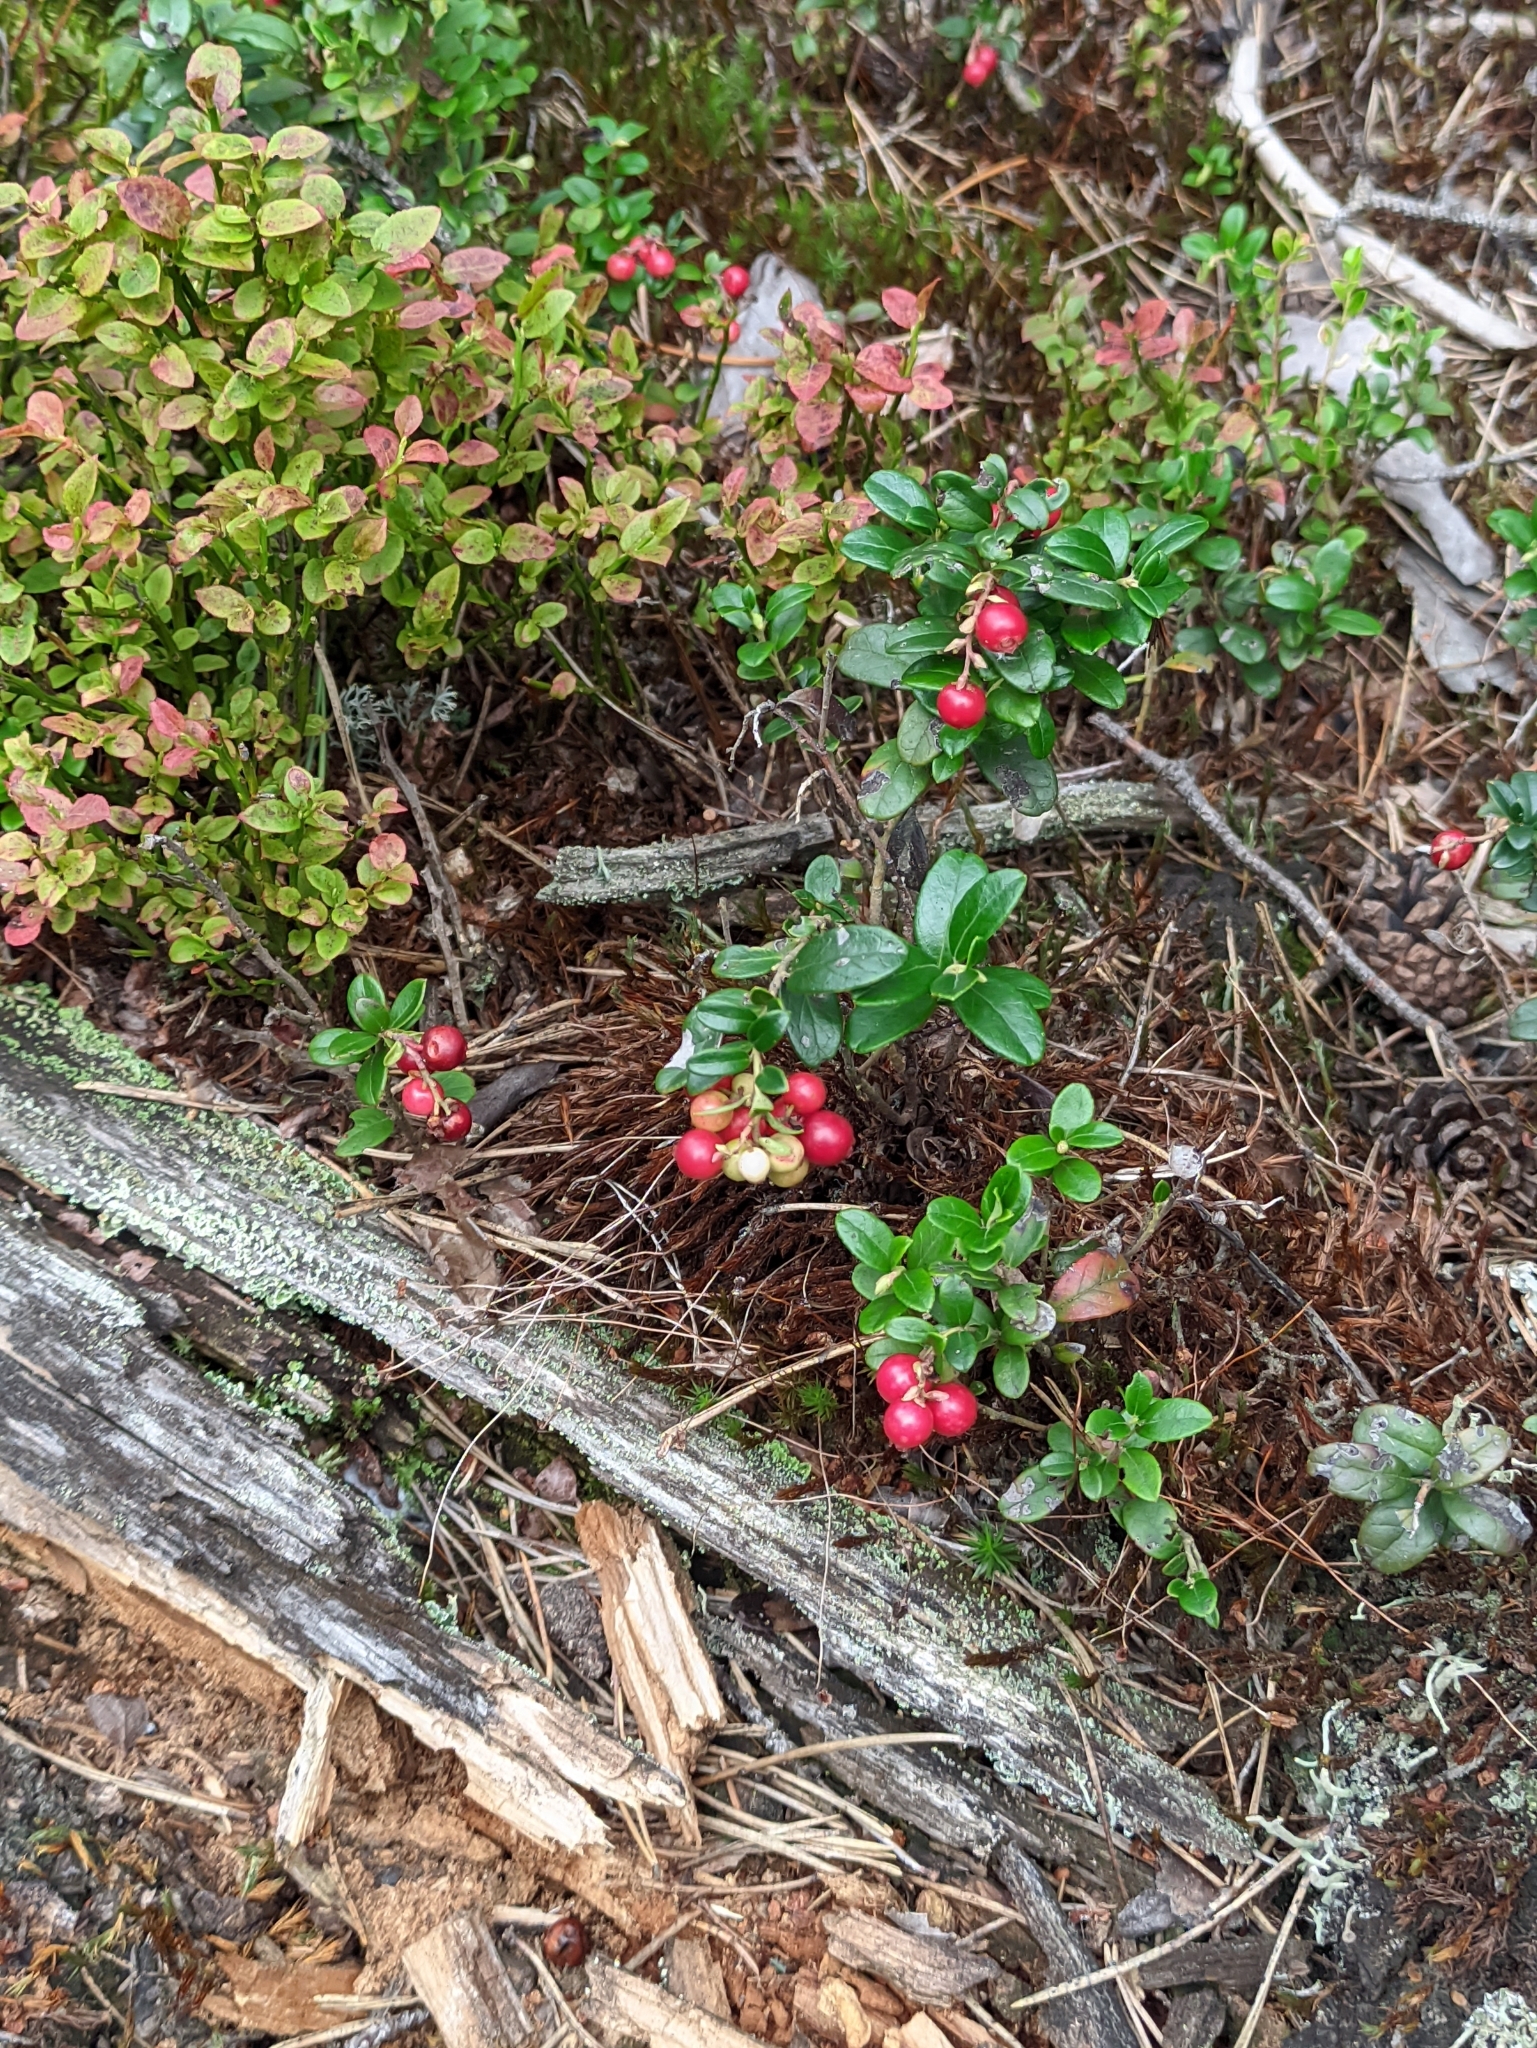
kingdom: Plantae
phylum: Tracheophyta
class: Magnoliopsida
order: Ericales
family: Ericaceae
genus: Vaccinium
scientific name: Vaccinium vitis-idaea
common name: Cowberry
